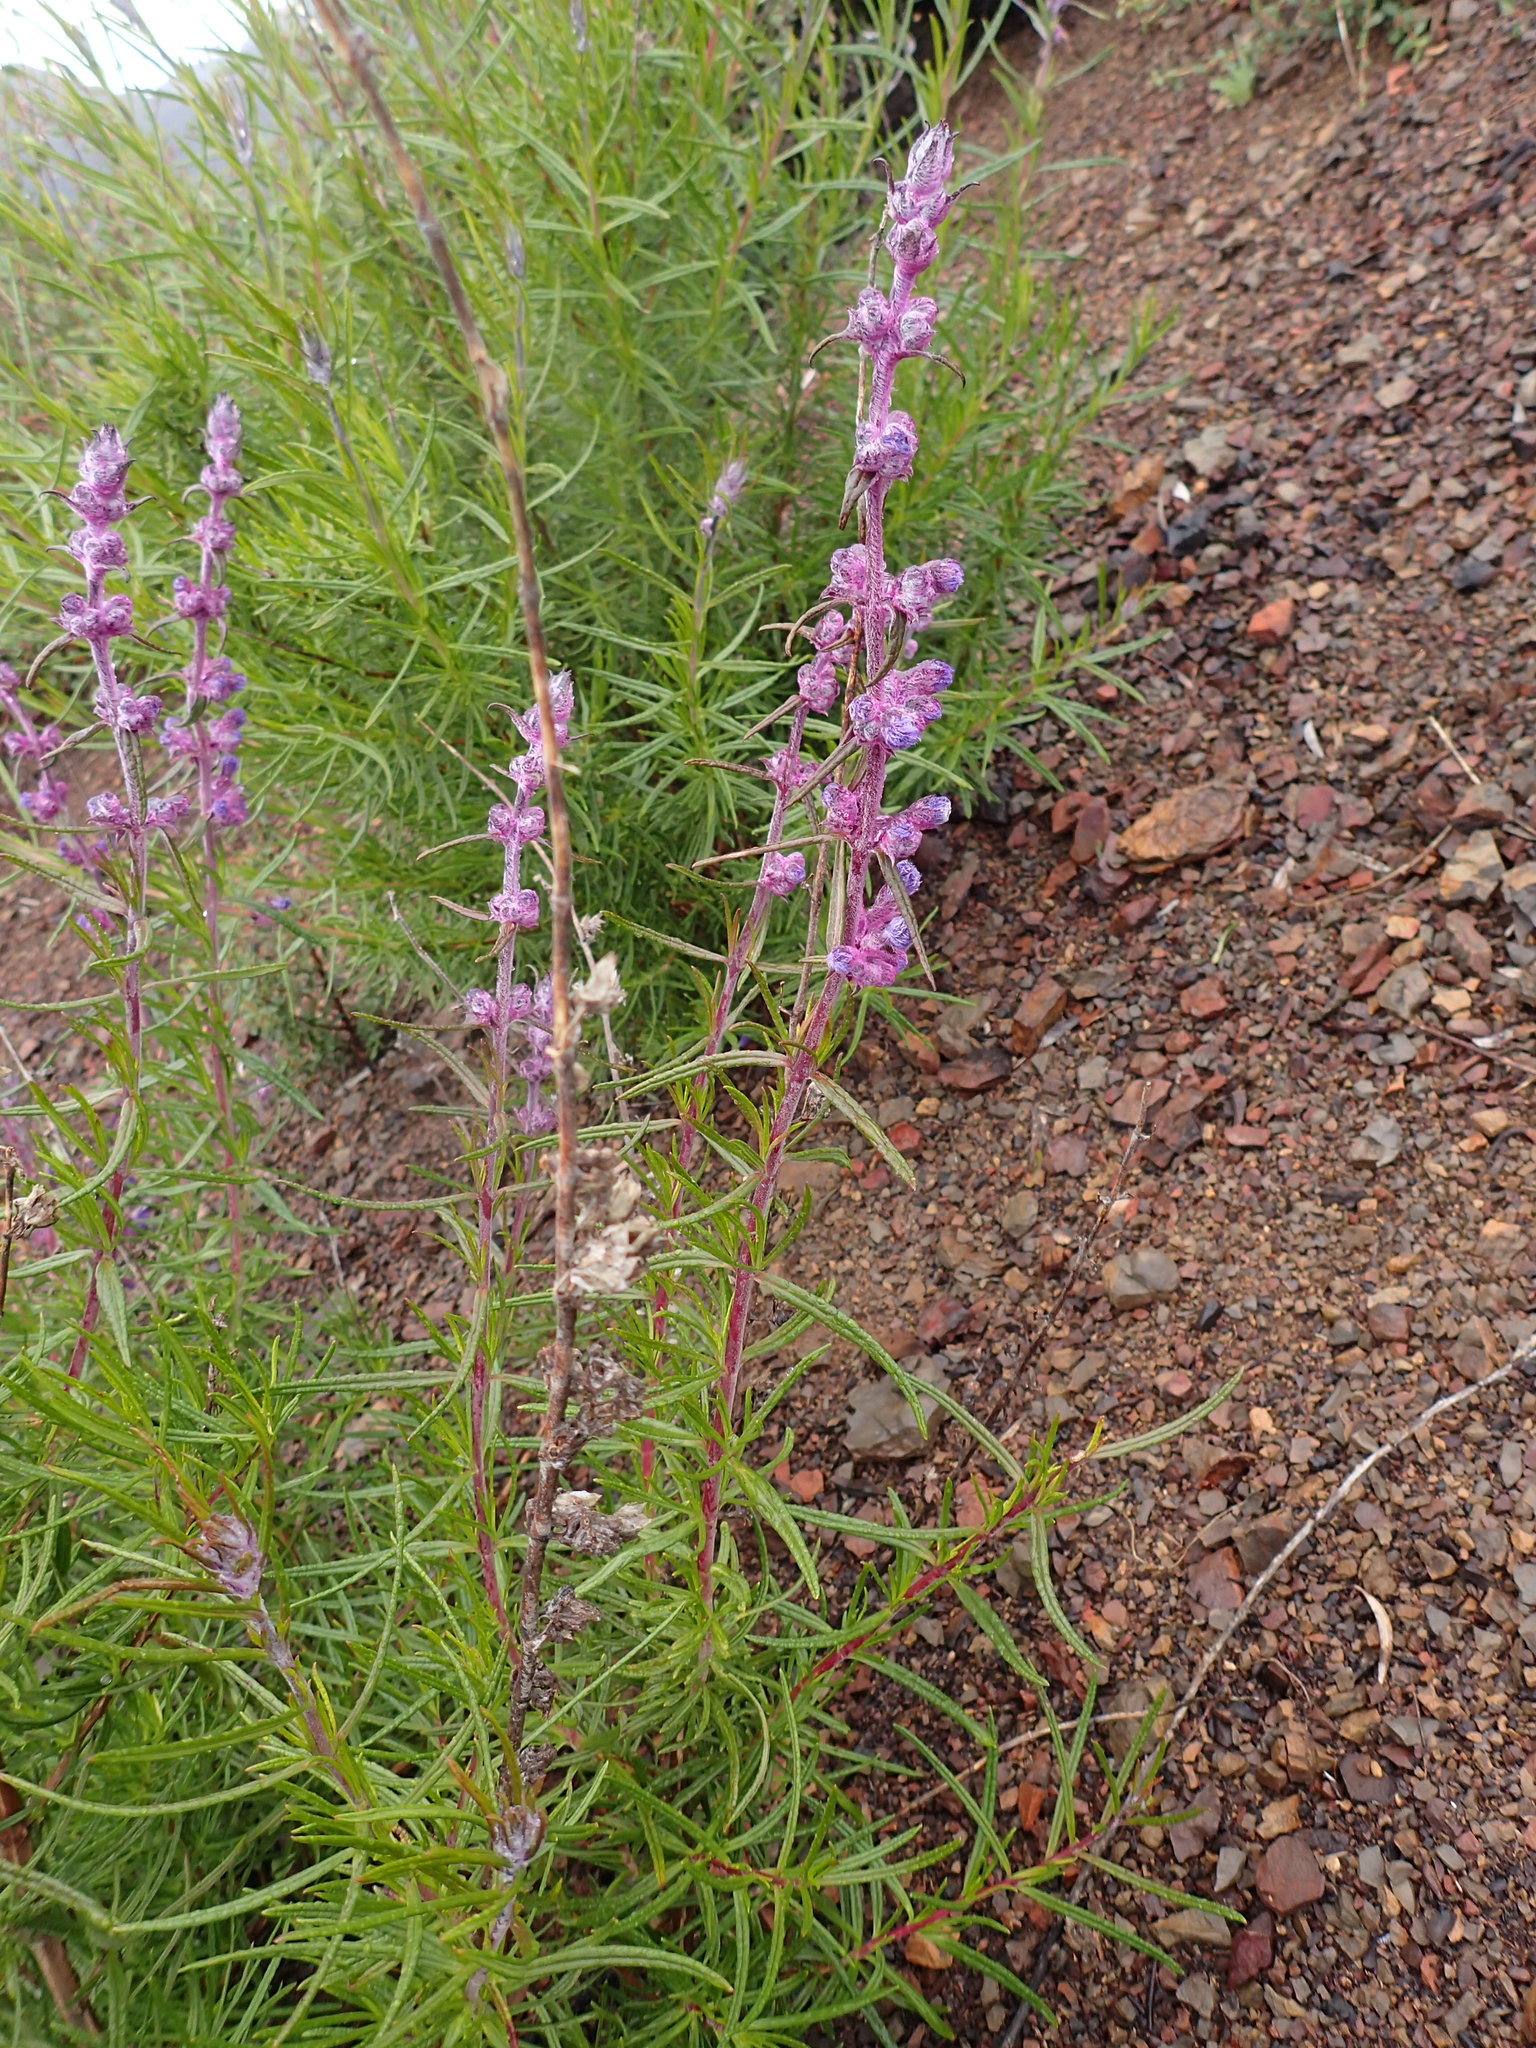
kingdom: Plantae
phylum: Tracheophyta
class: Magnoliopsida
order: Lamiales
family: Lamiaceae
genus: Trichostema
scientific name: Trichostema lanatum
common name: Woolly bluecurls
